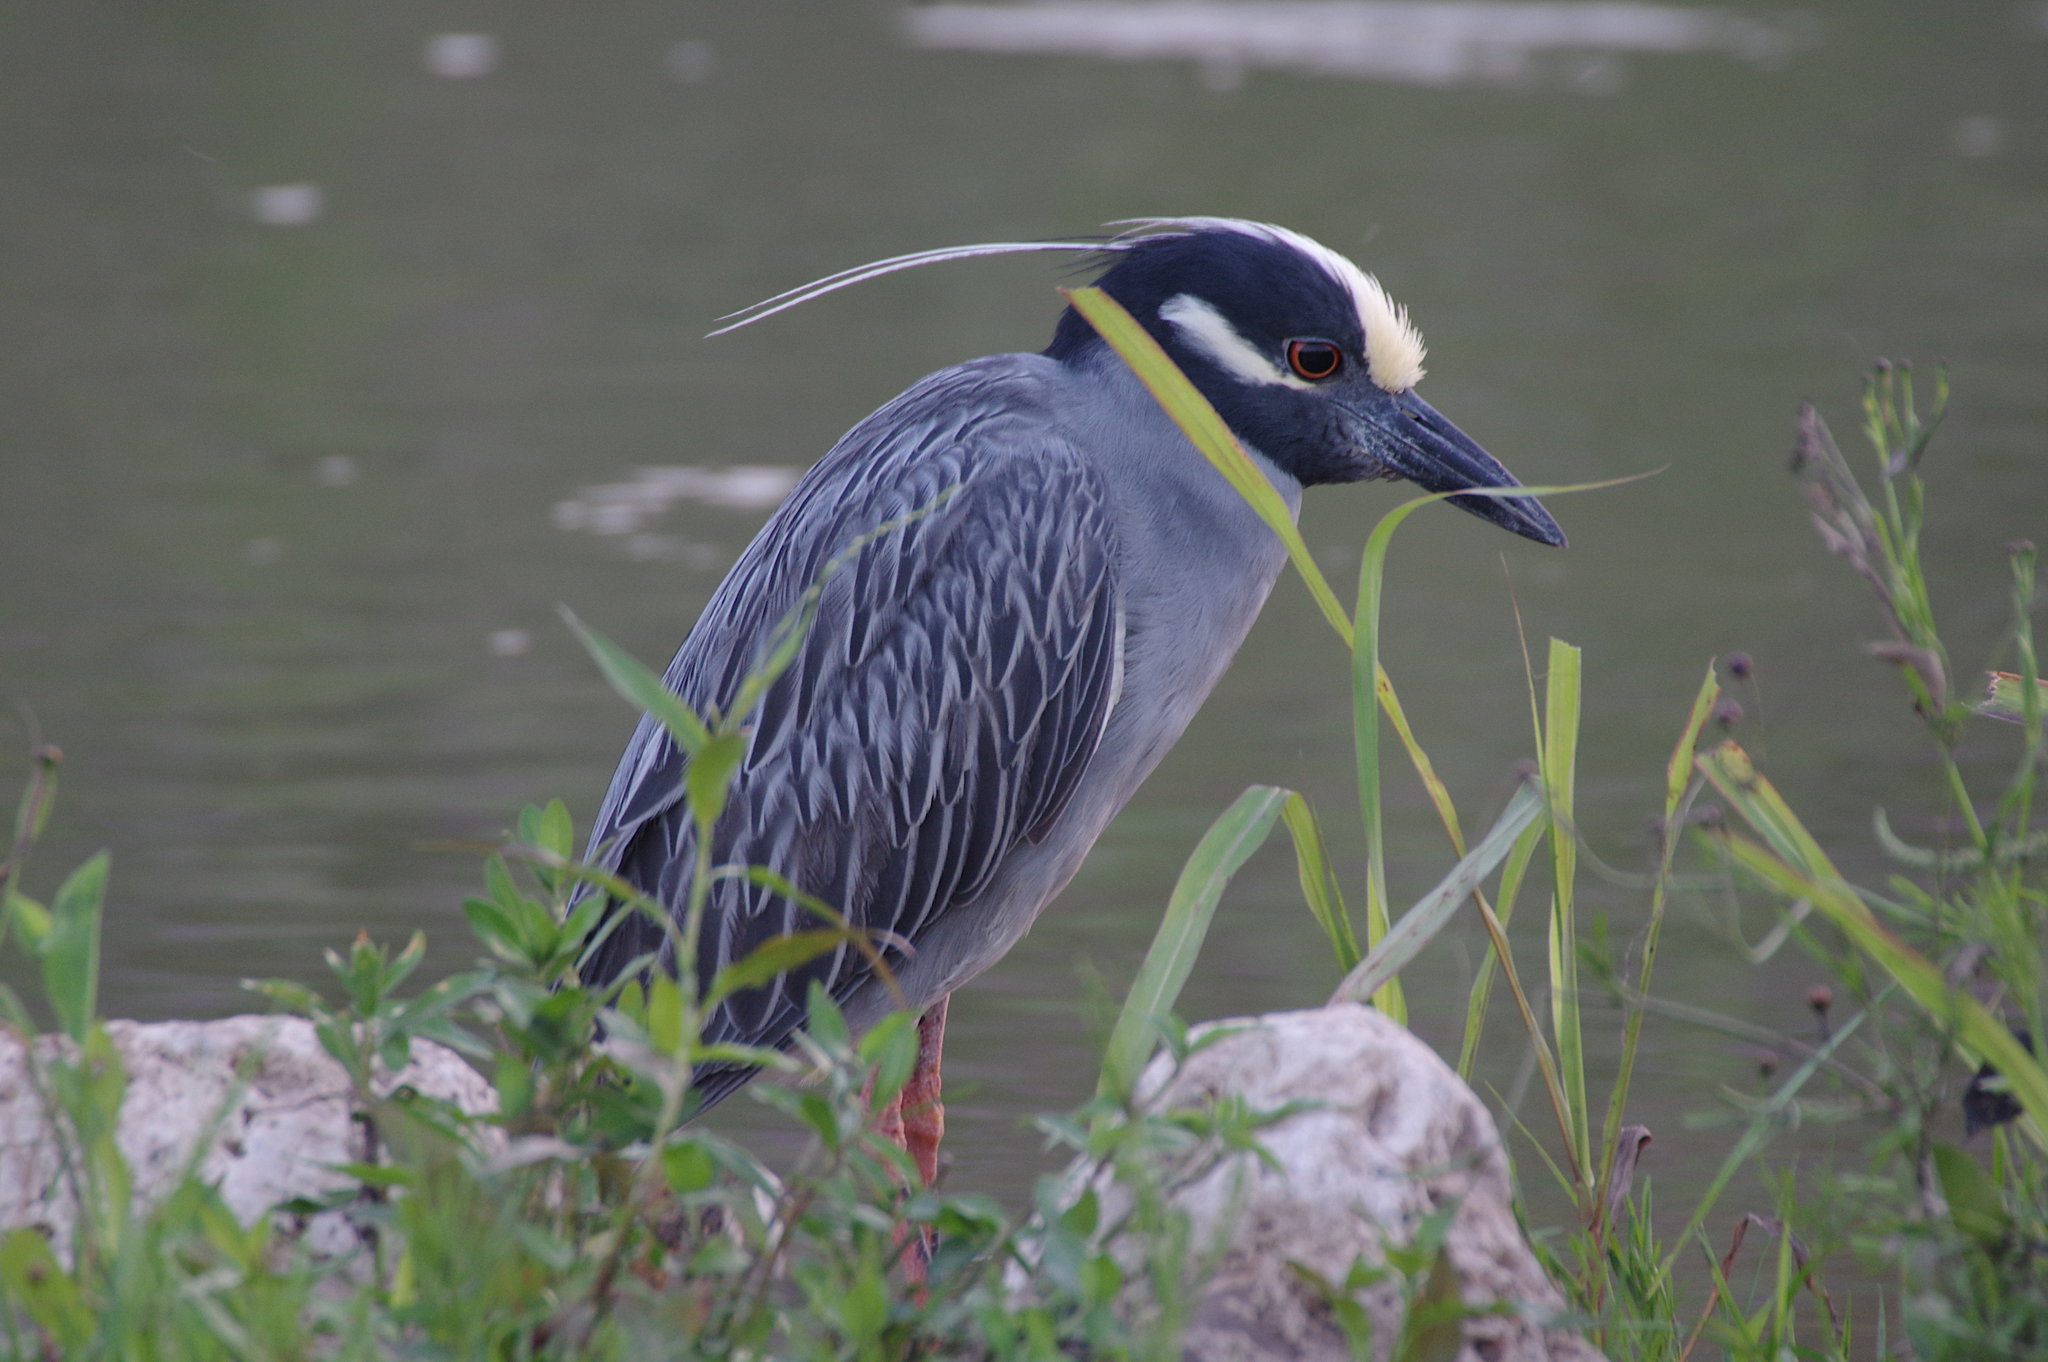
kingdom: Animalia
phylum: Chordata
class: Aves
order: Pelecaniformes
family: Ardeidae
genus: Nyctanassa
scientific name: Nyctanassa violacea
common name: Yellow-crowned night heron
